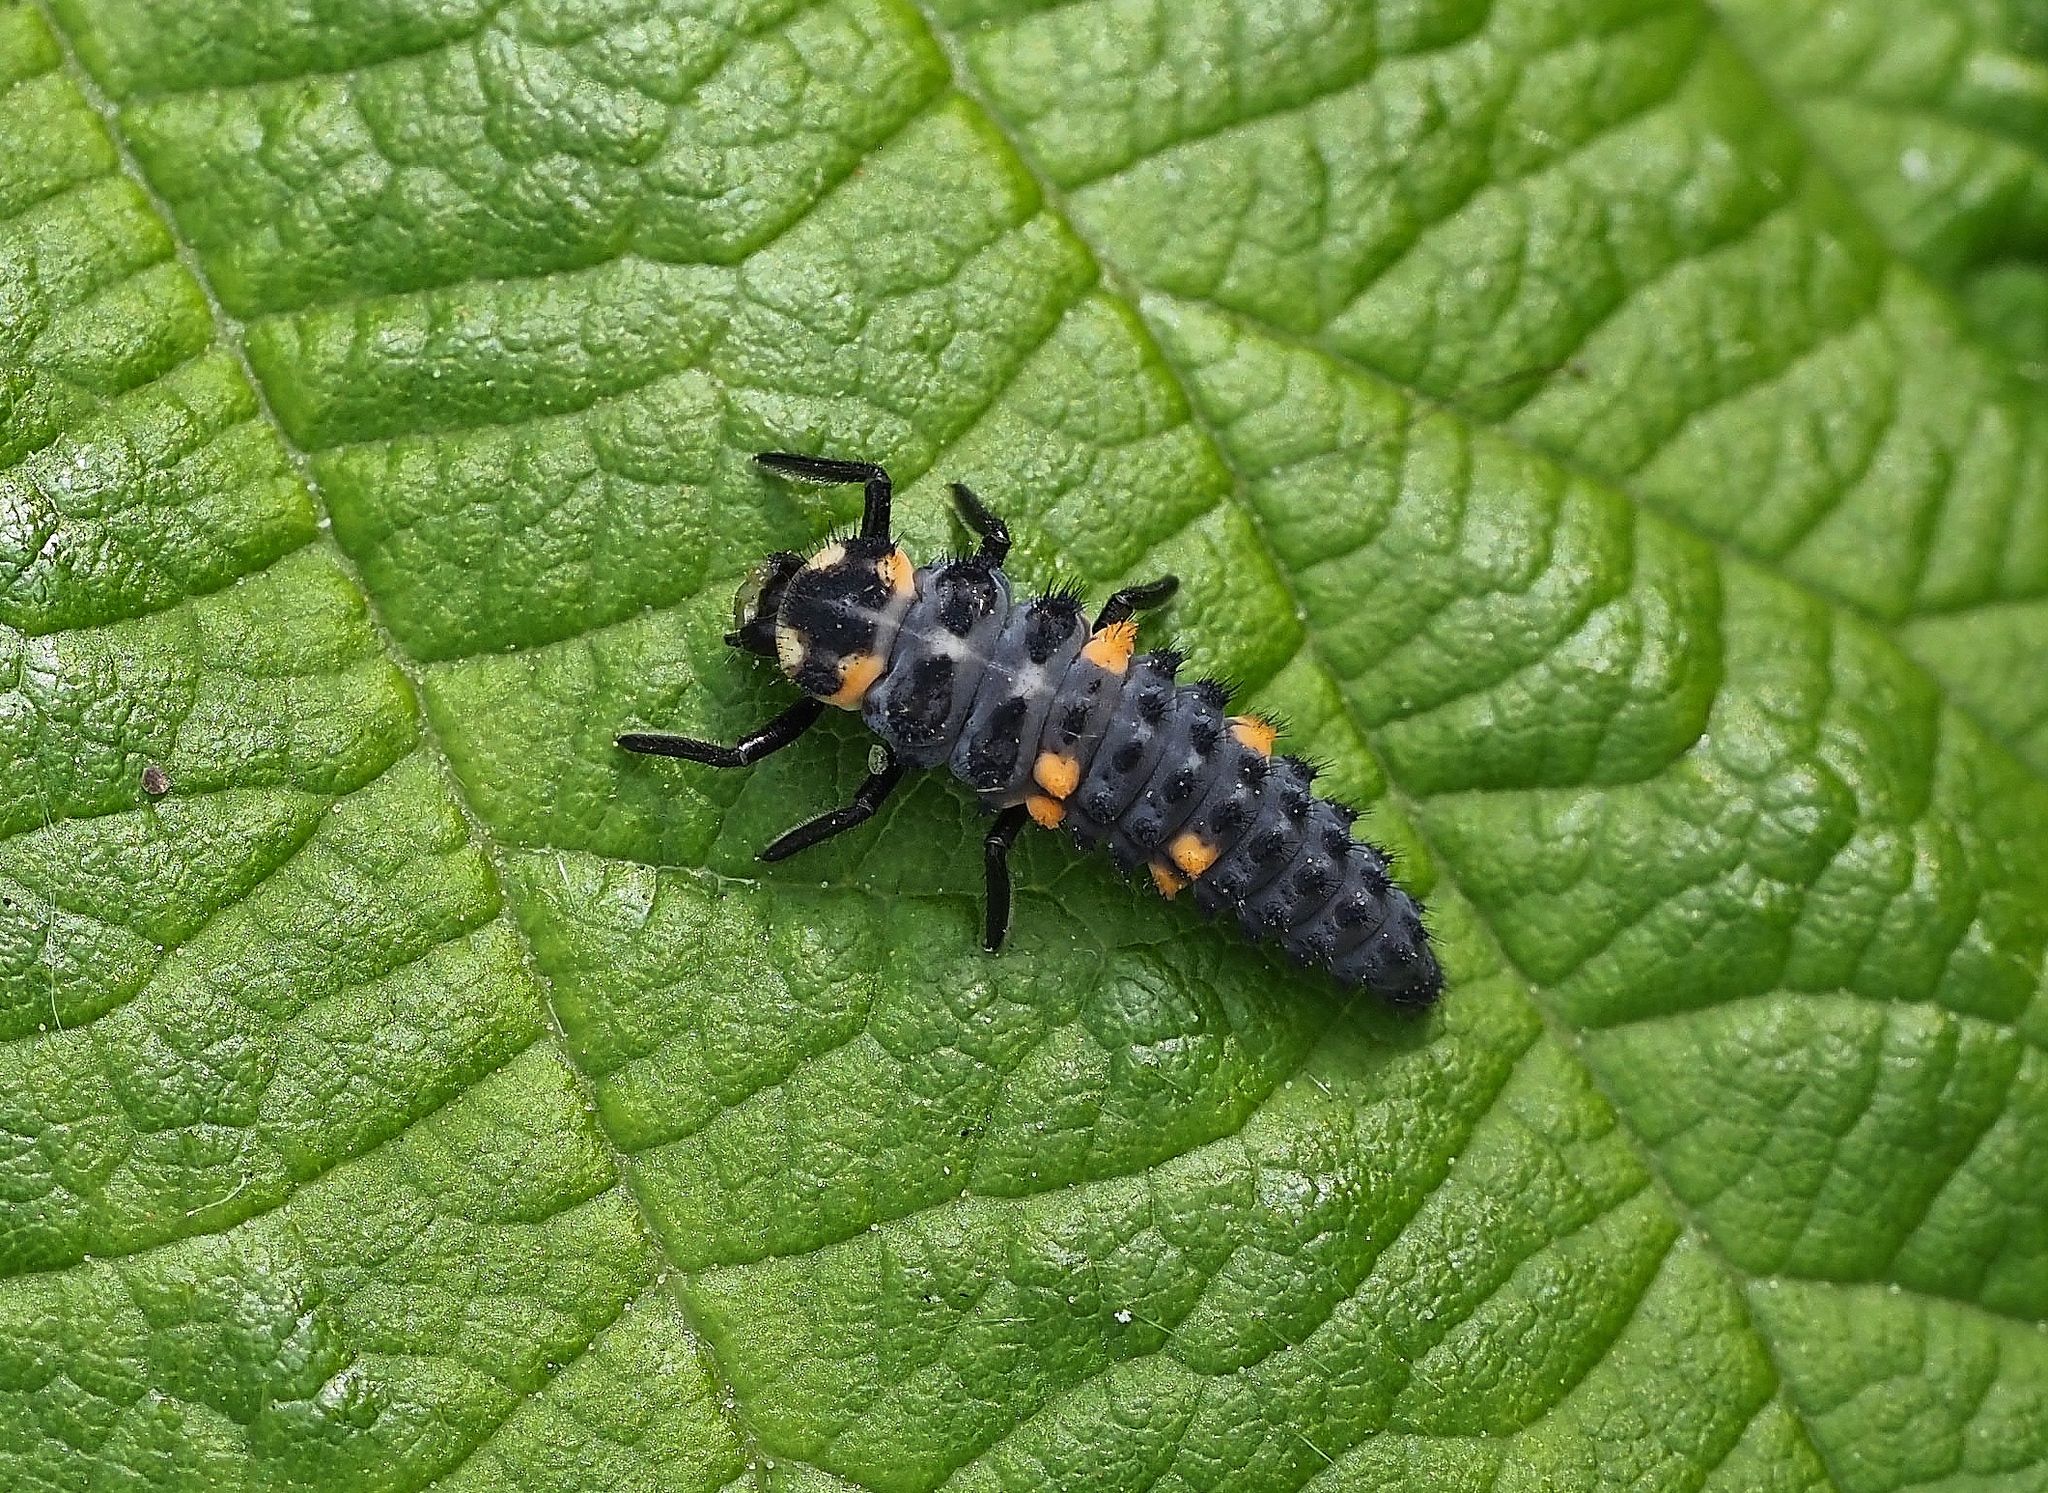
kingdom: Animalia
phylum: Arthropoda
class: Insecta
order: Coleoptera
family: Coccinellidae
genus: Coccinella
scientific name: Coccinella septempunctata
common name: Sevenspotted lady beetle
